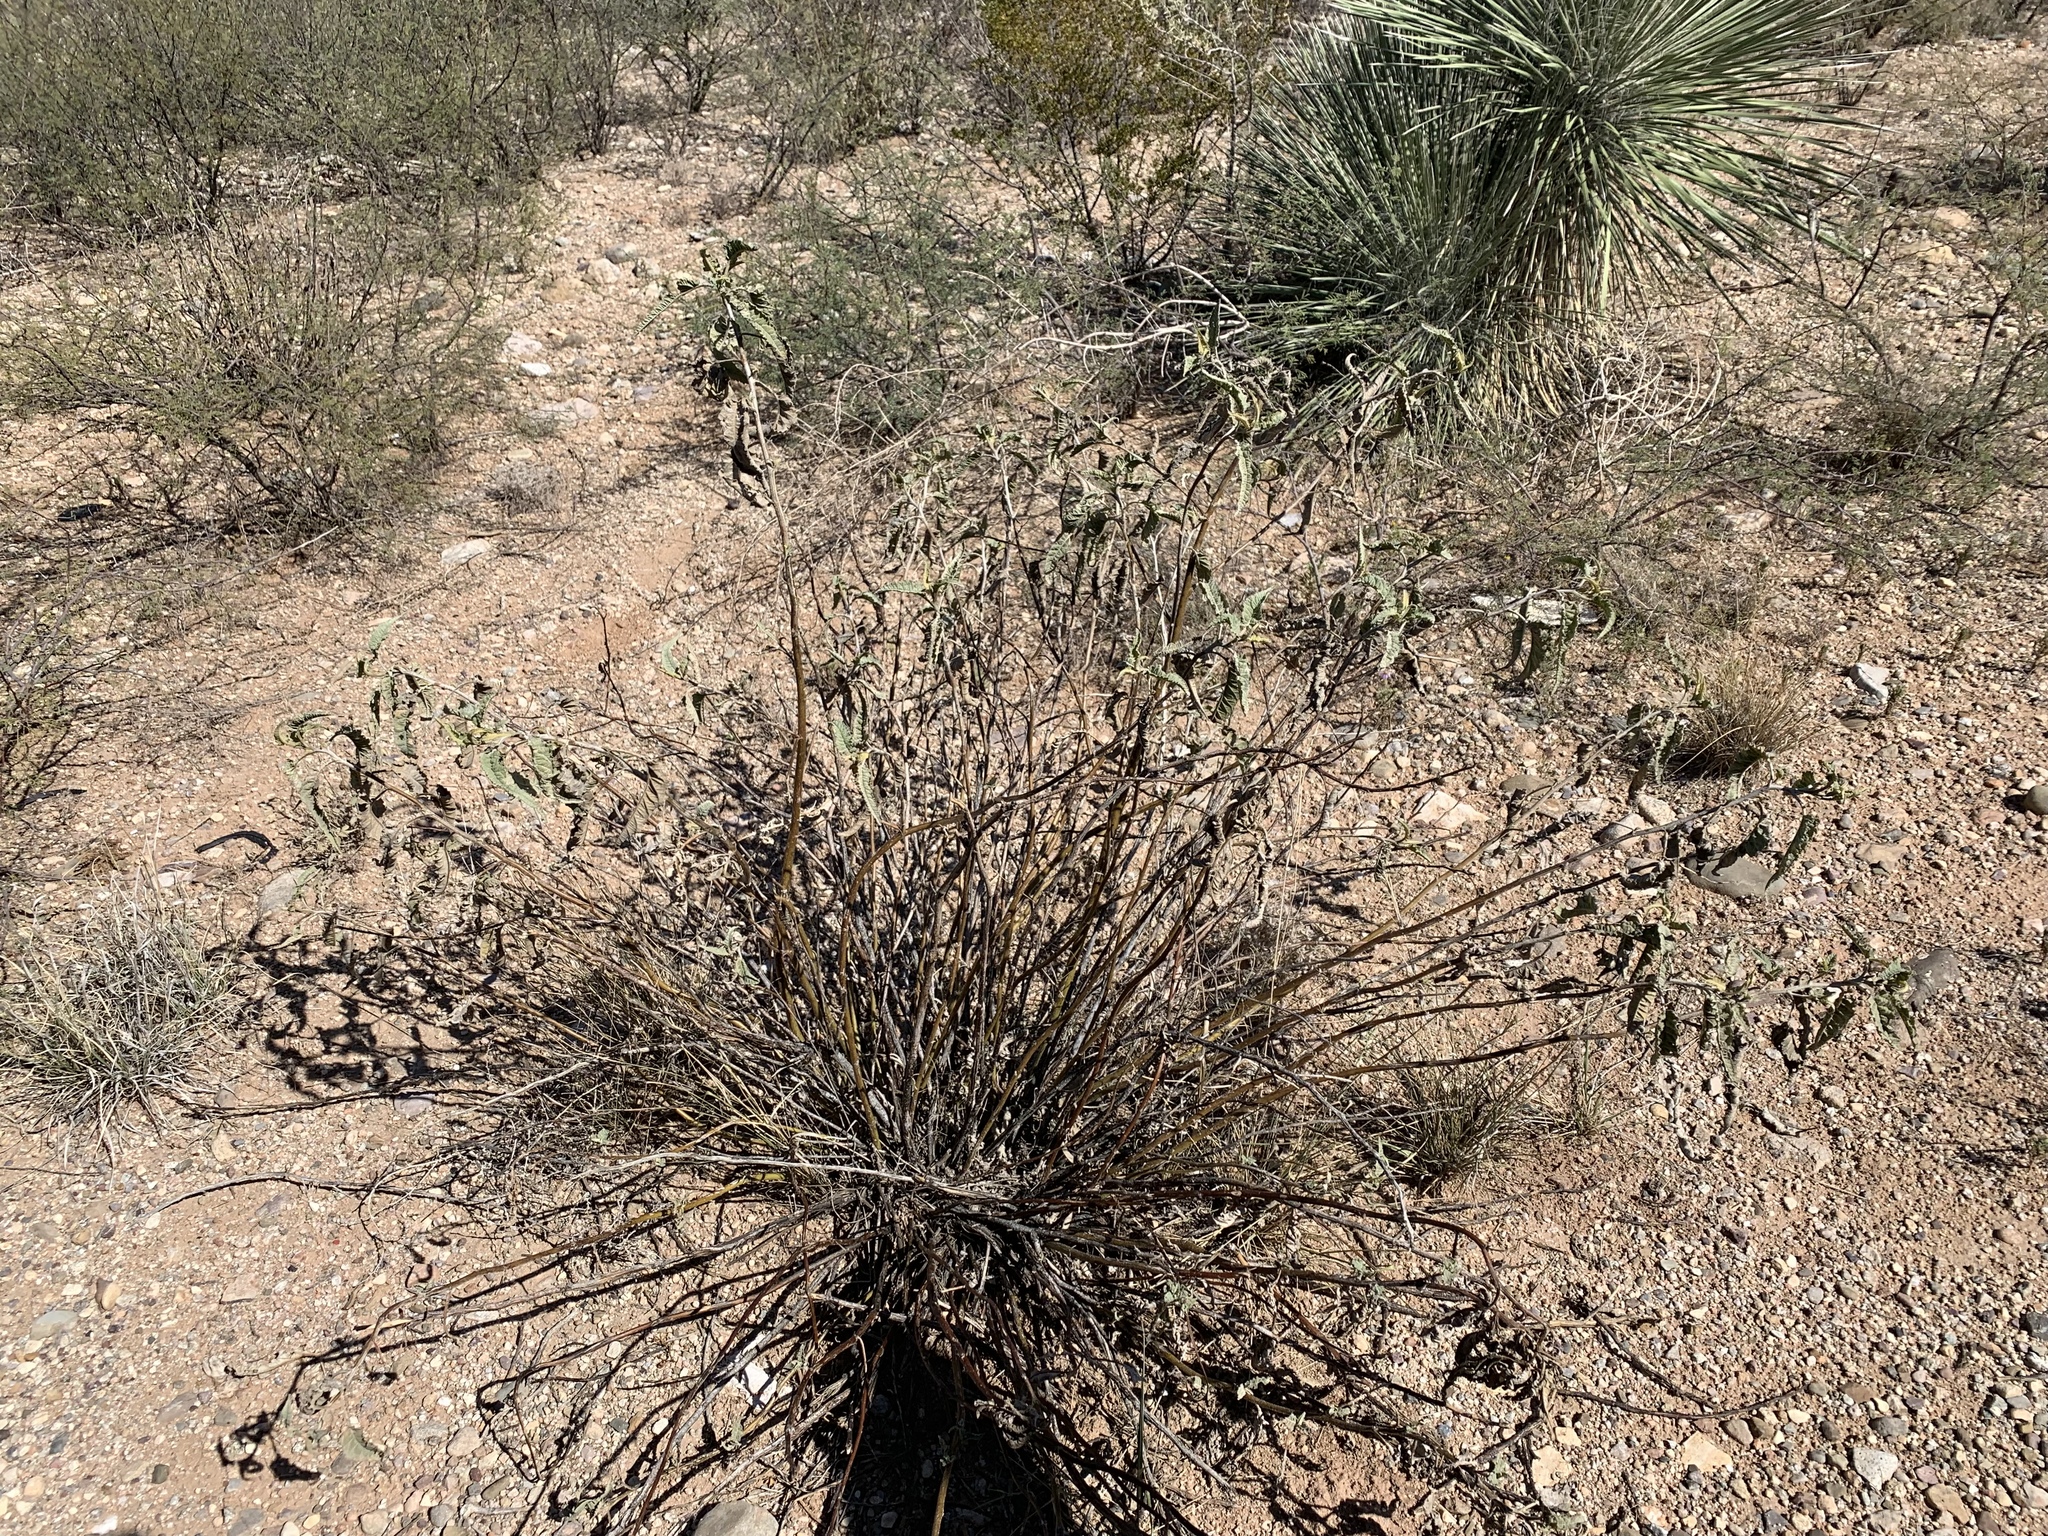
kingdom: Plantae
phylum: Tracheophyta
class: Magnoliopsida
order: Asterales
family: Asteraceae
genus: Ambrosia
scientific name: Ambrosia ambrosioides
